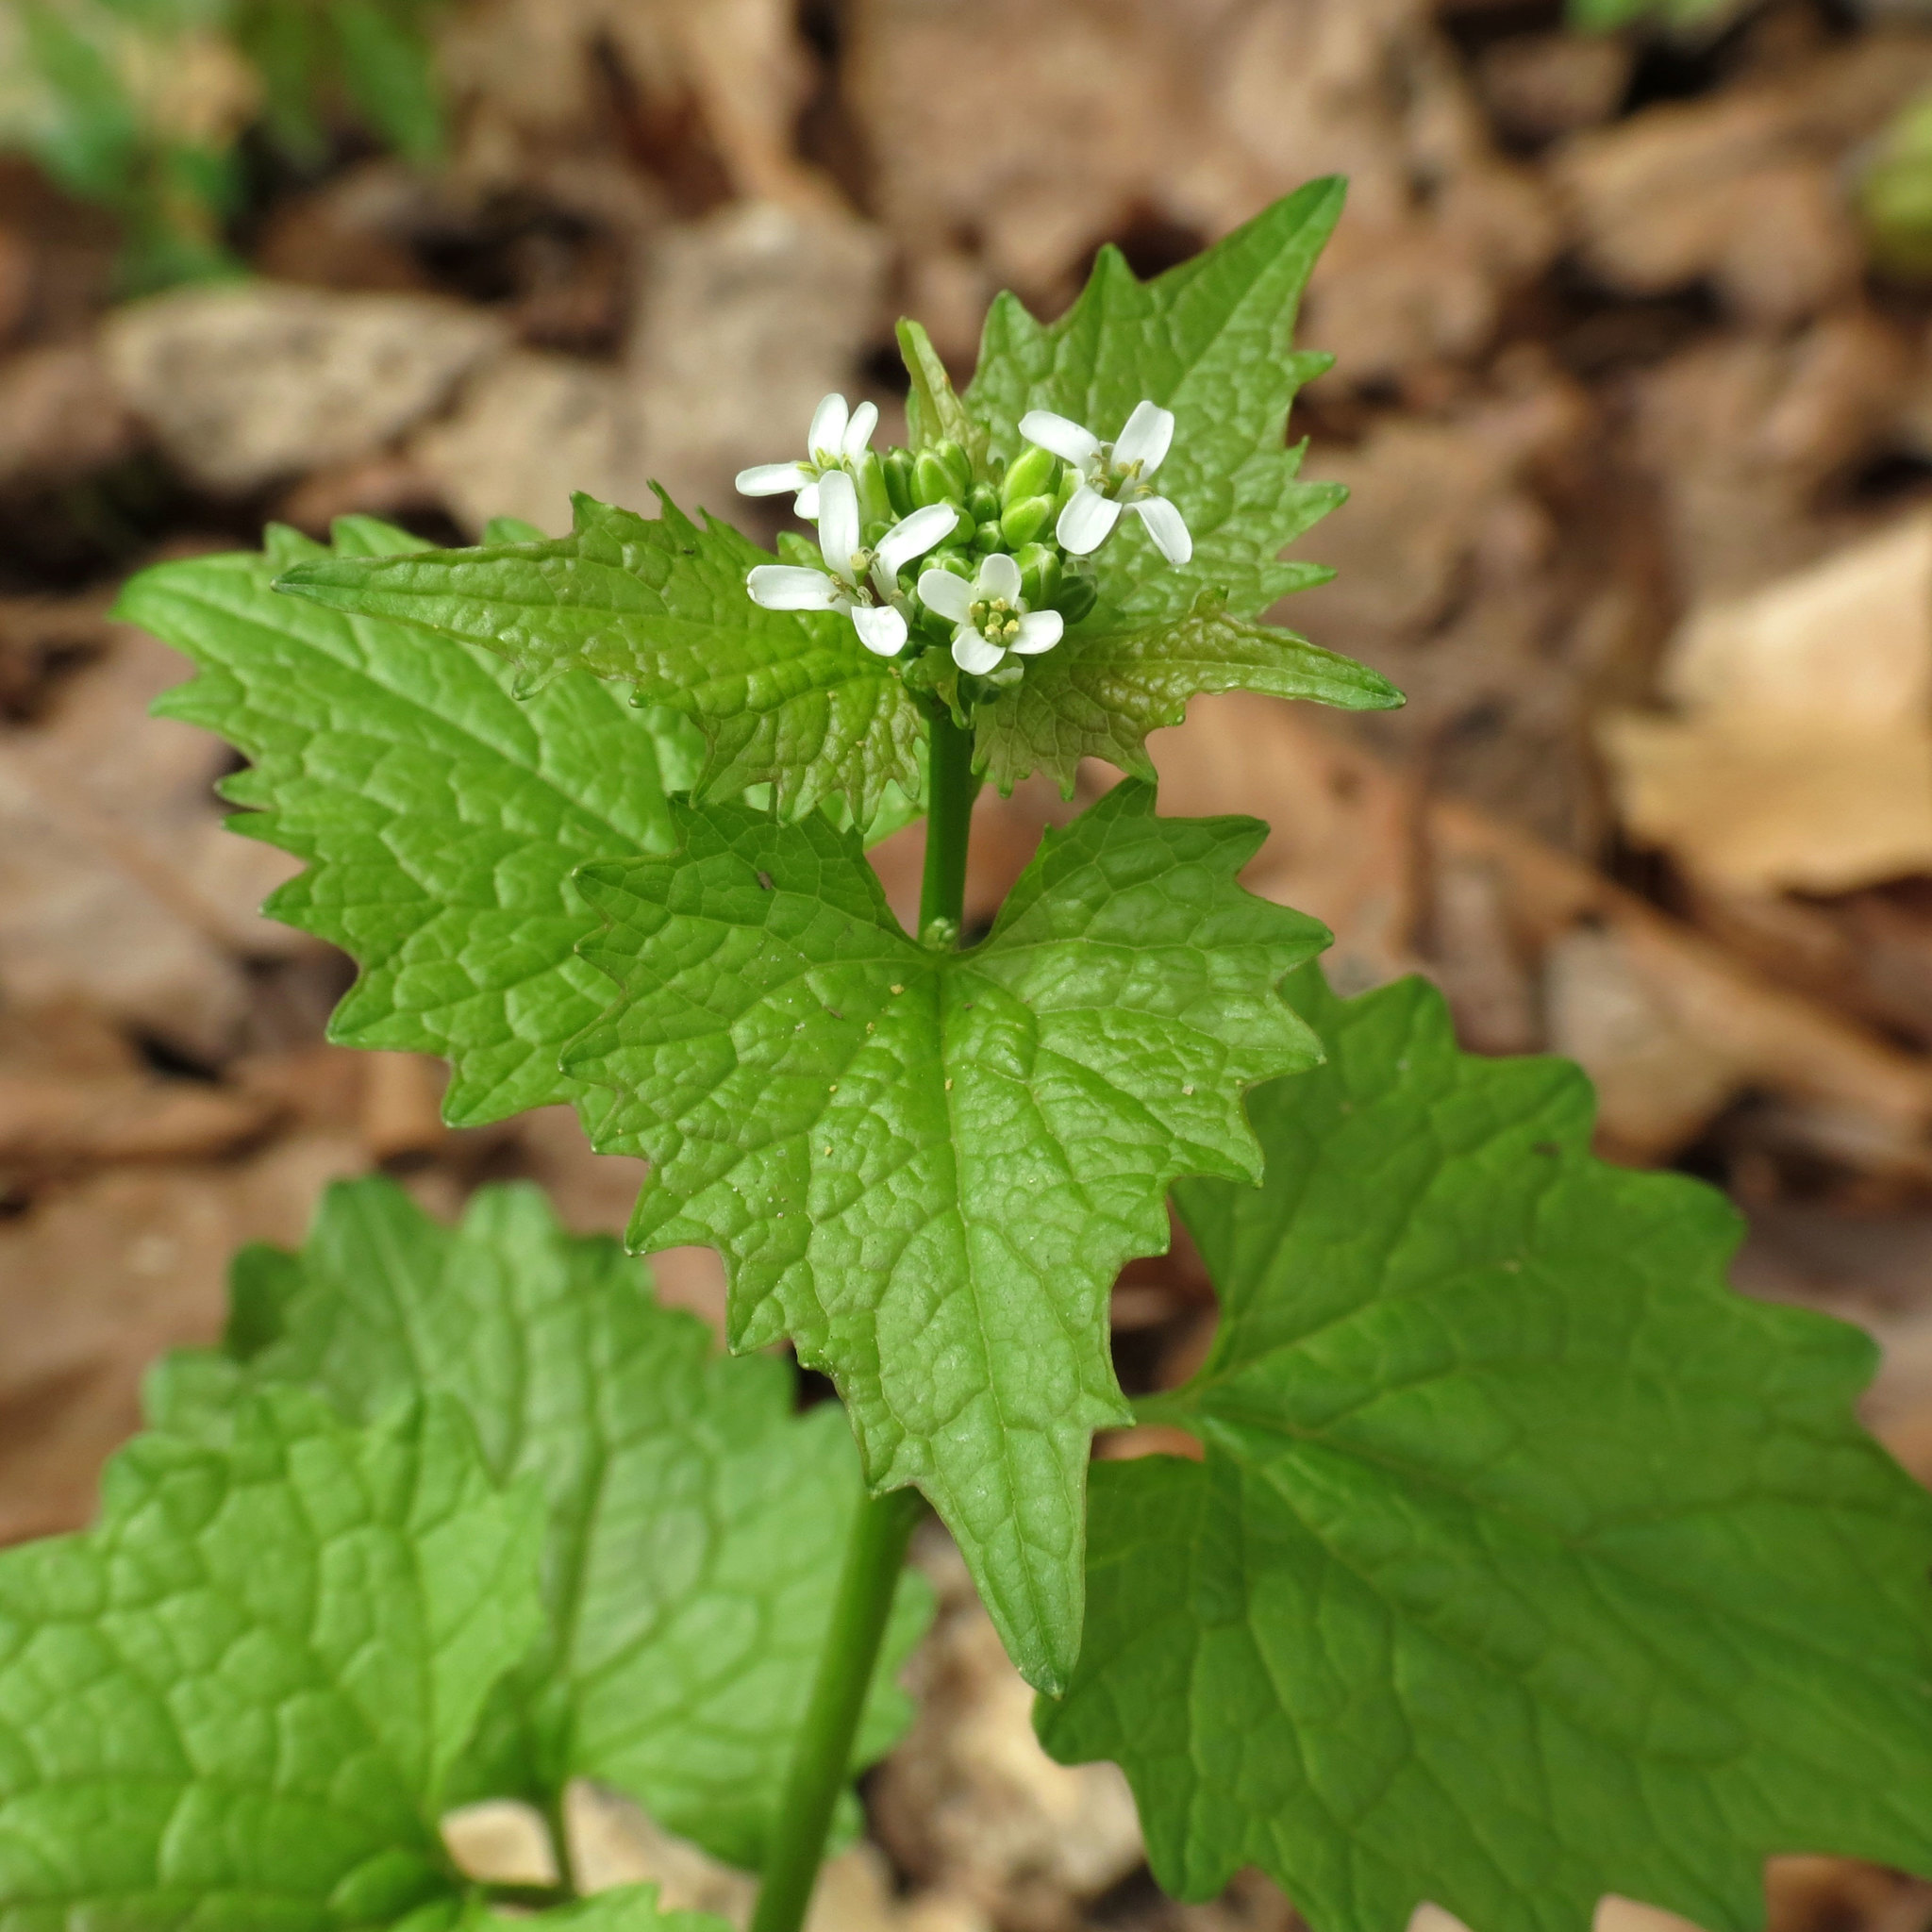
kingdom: Plantae
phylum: Tracheophyta
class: Magnoliopsida
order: Brassicales
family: Brassicaceae
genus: Alliaria
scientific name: Alliaria petiolata
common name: Garlic mustard
